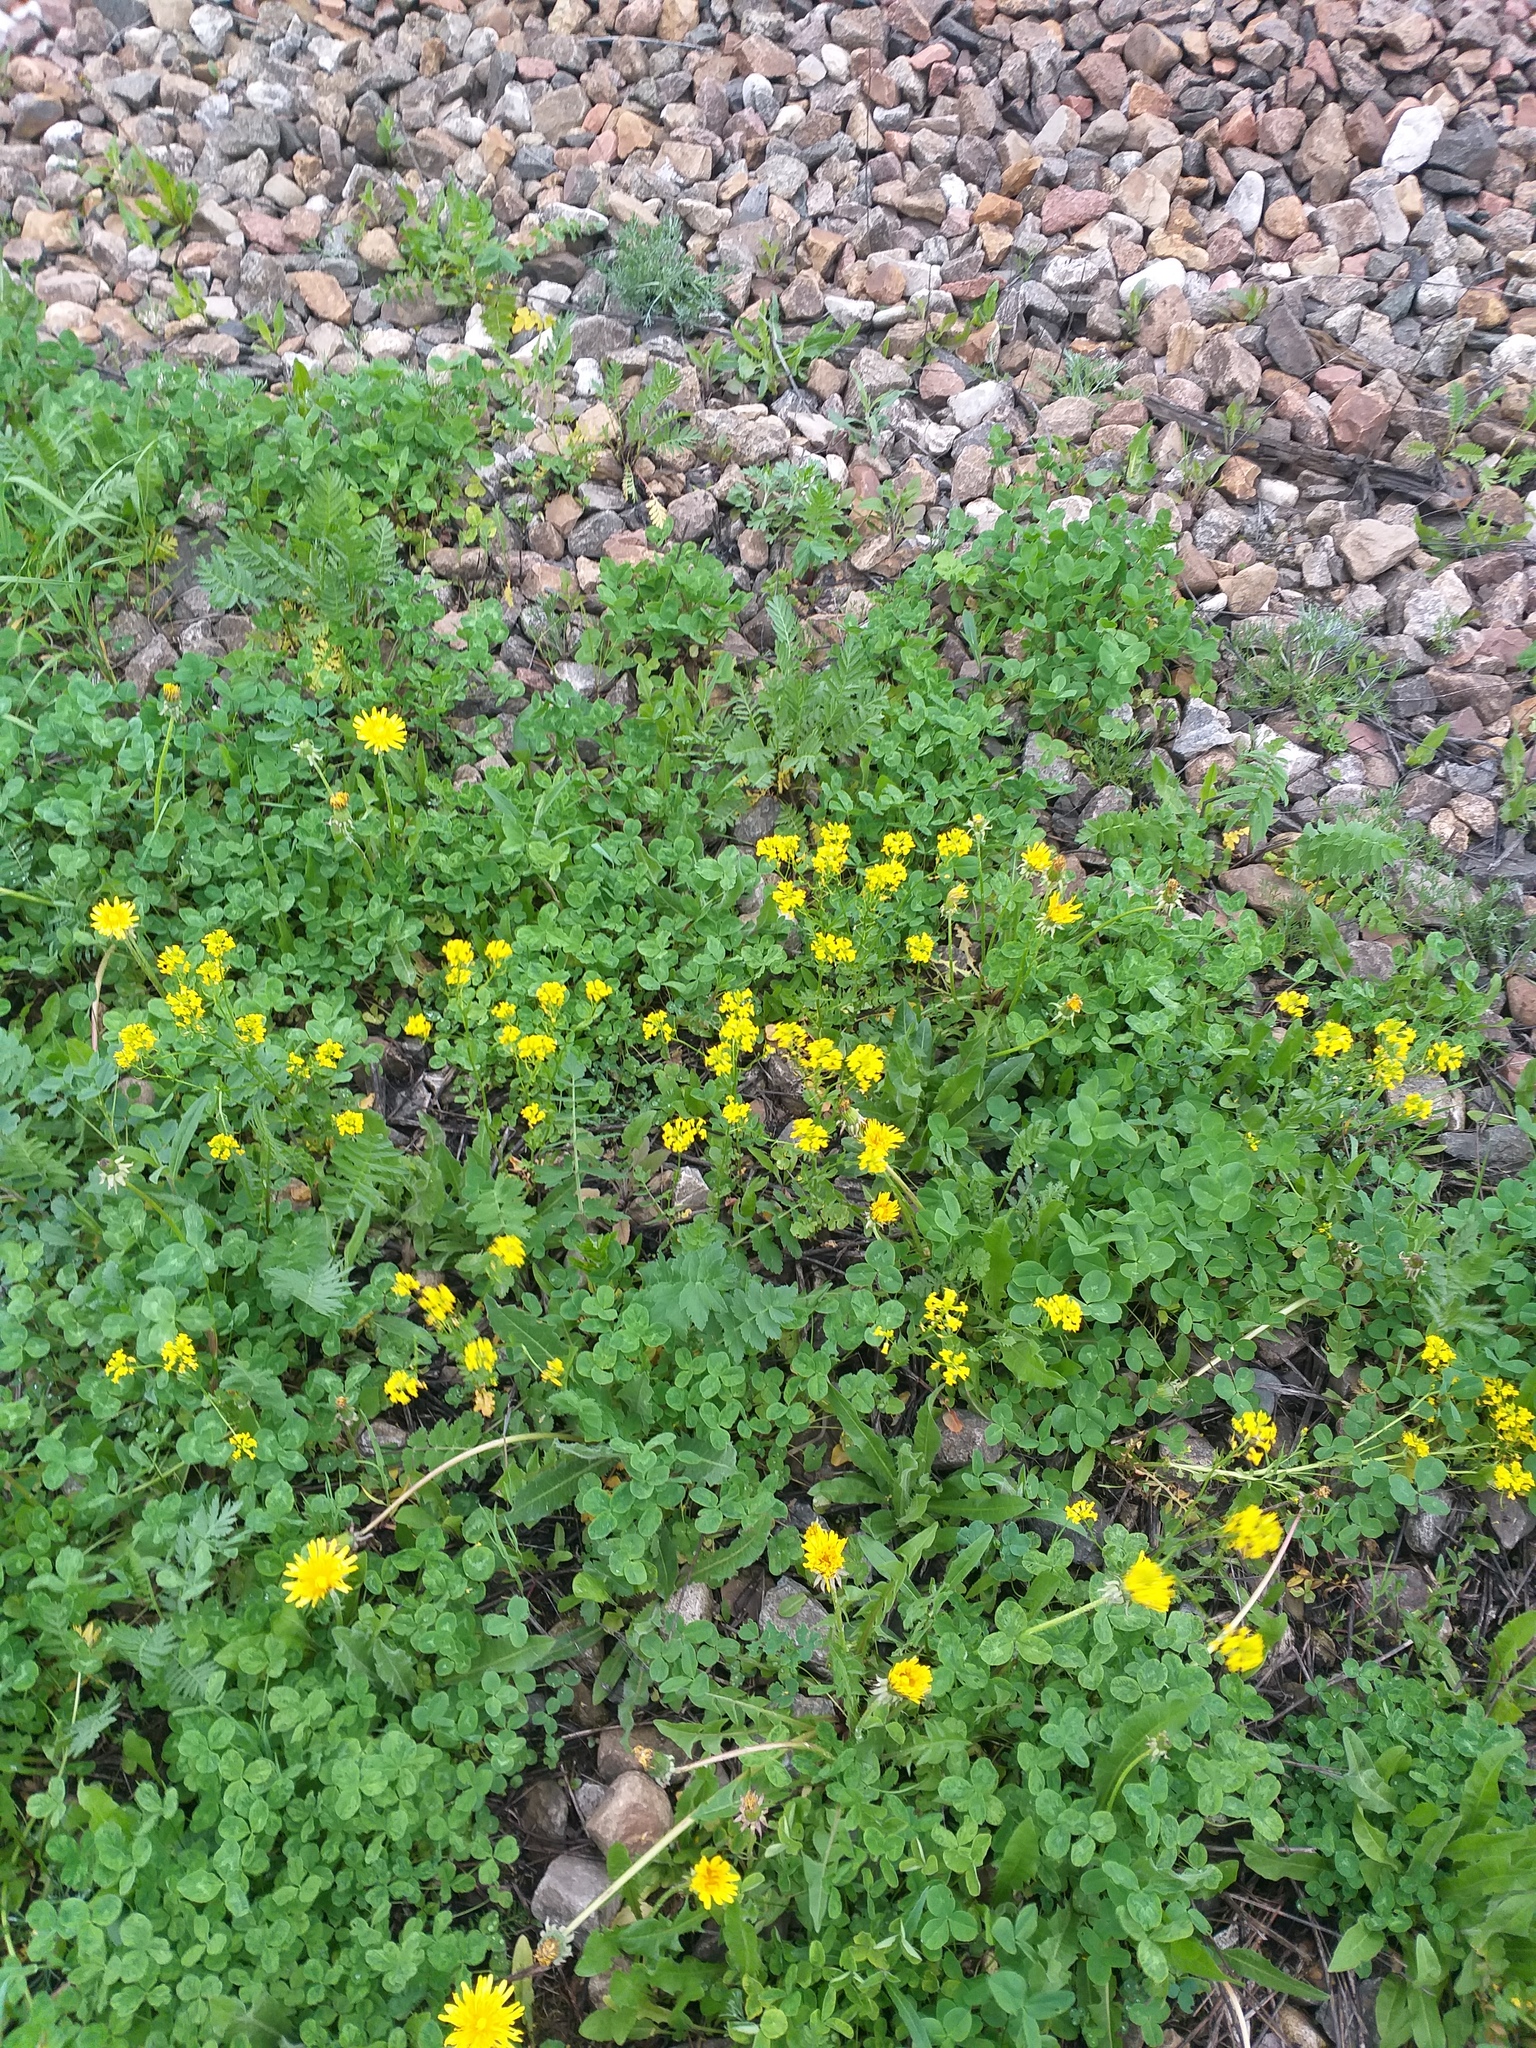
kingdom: Plantae
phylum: Tracheophyta
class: Magnoliopsida
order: Brassicales
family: Brassicaceae
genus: Barbarea
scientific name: Barbarea vulgaris
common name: Cressy-greens
